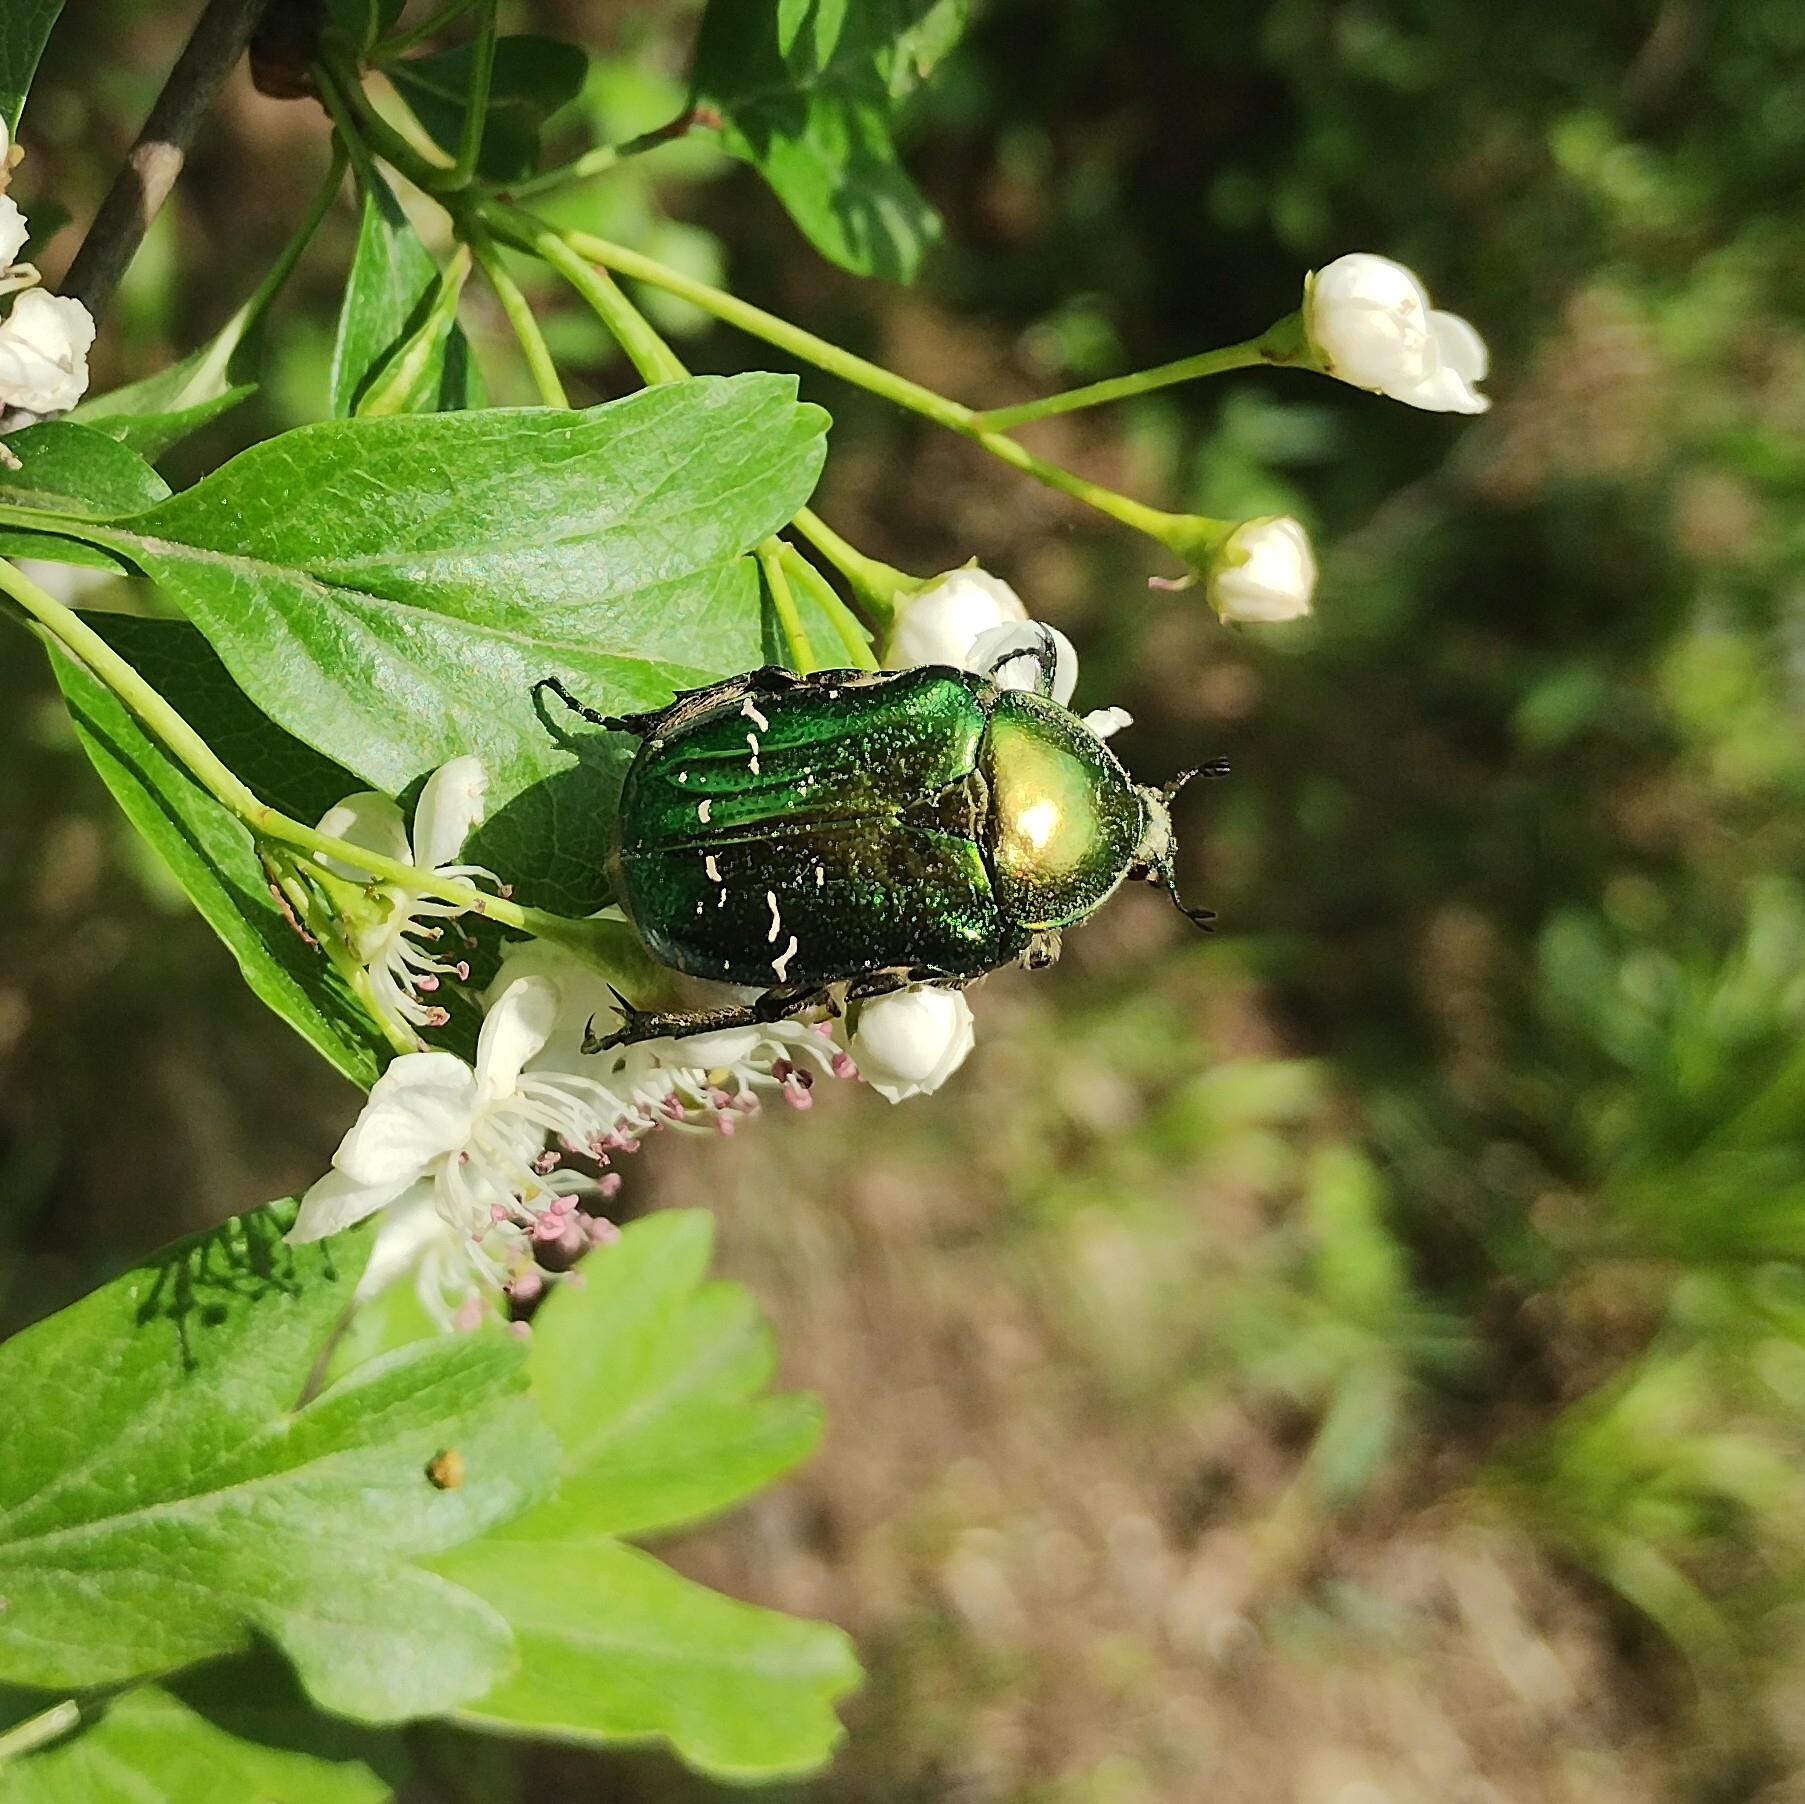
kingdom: Animalia
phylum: Arthropoda
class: Insecta
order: Coleoptera
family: Scarabaeidae
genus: Cetonia
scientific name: Cetonia aurata
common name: Rose chafer
